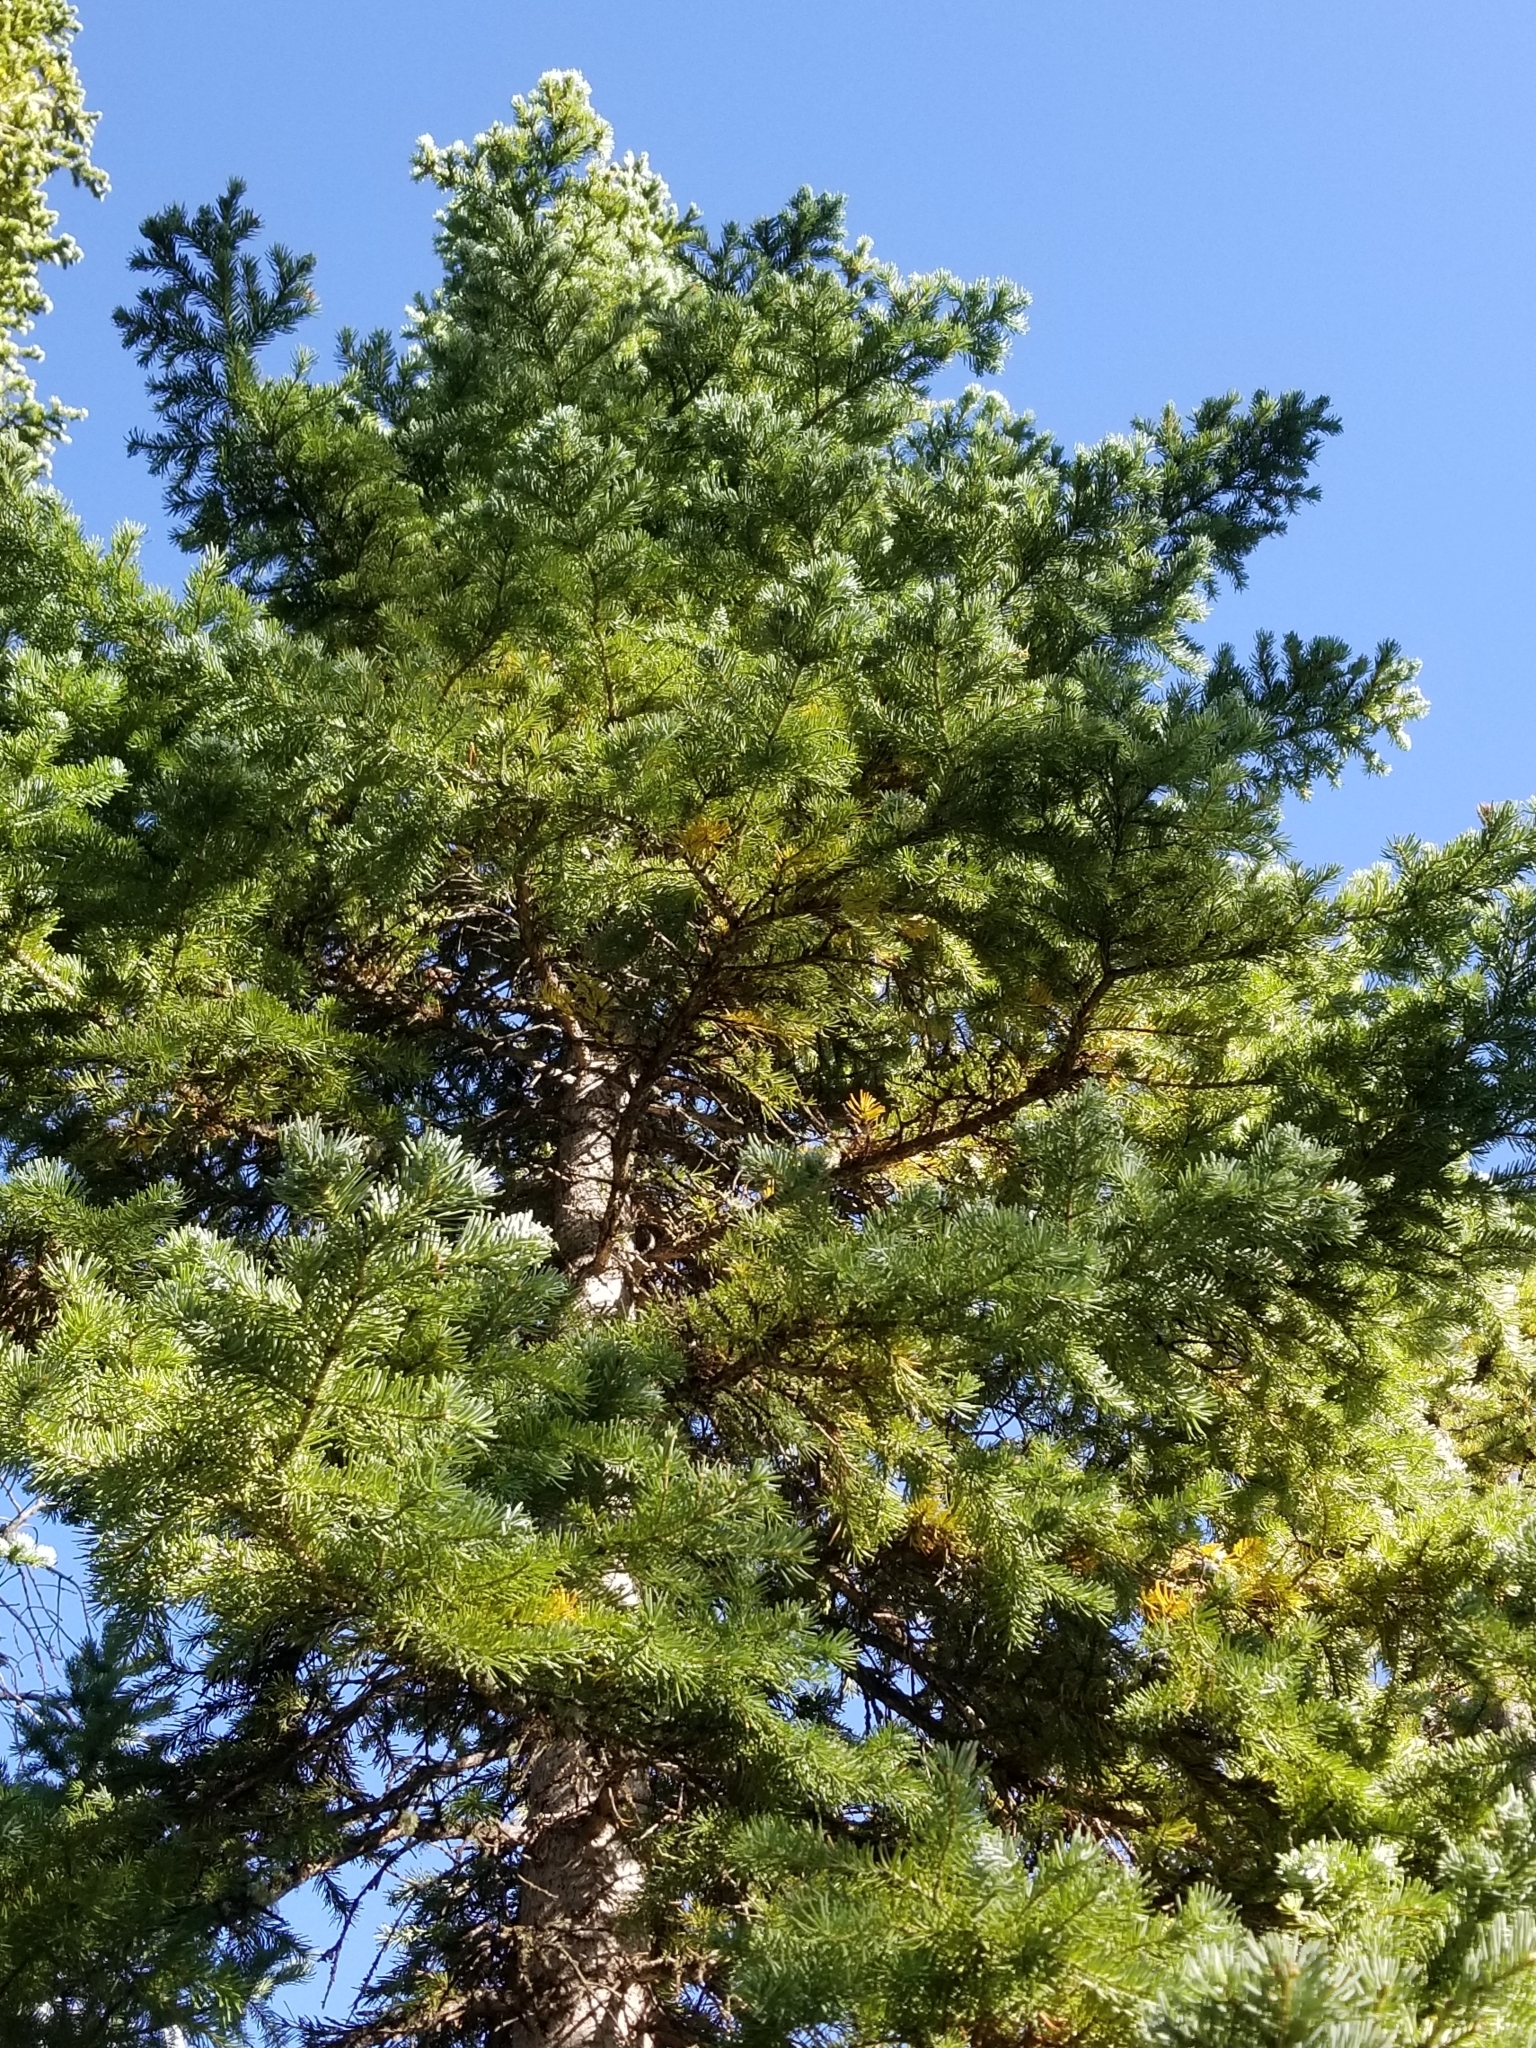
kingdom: Plantae
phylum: Tracheophyta
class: Pinopsida
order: Pinales
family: Pinaceae
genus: Abies
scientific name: Abies lasiocarpa
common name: Subalpine fir
